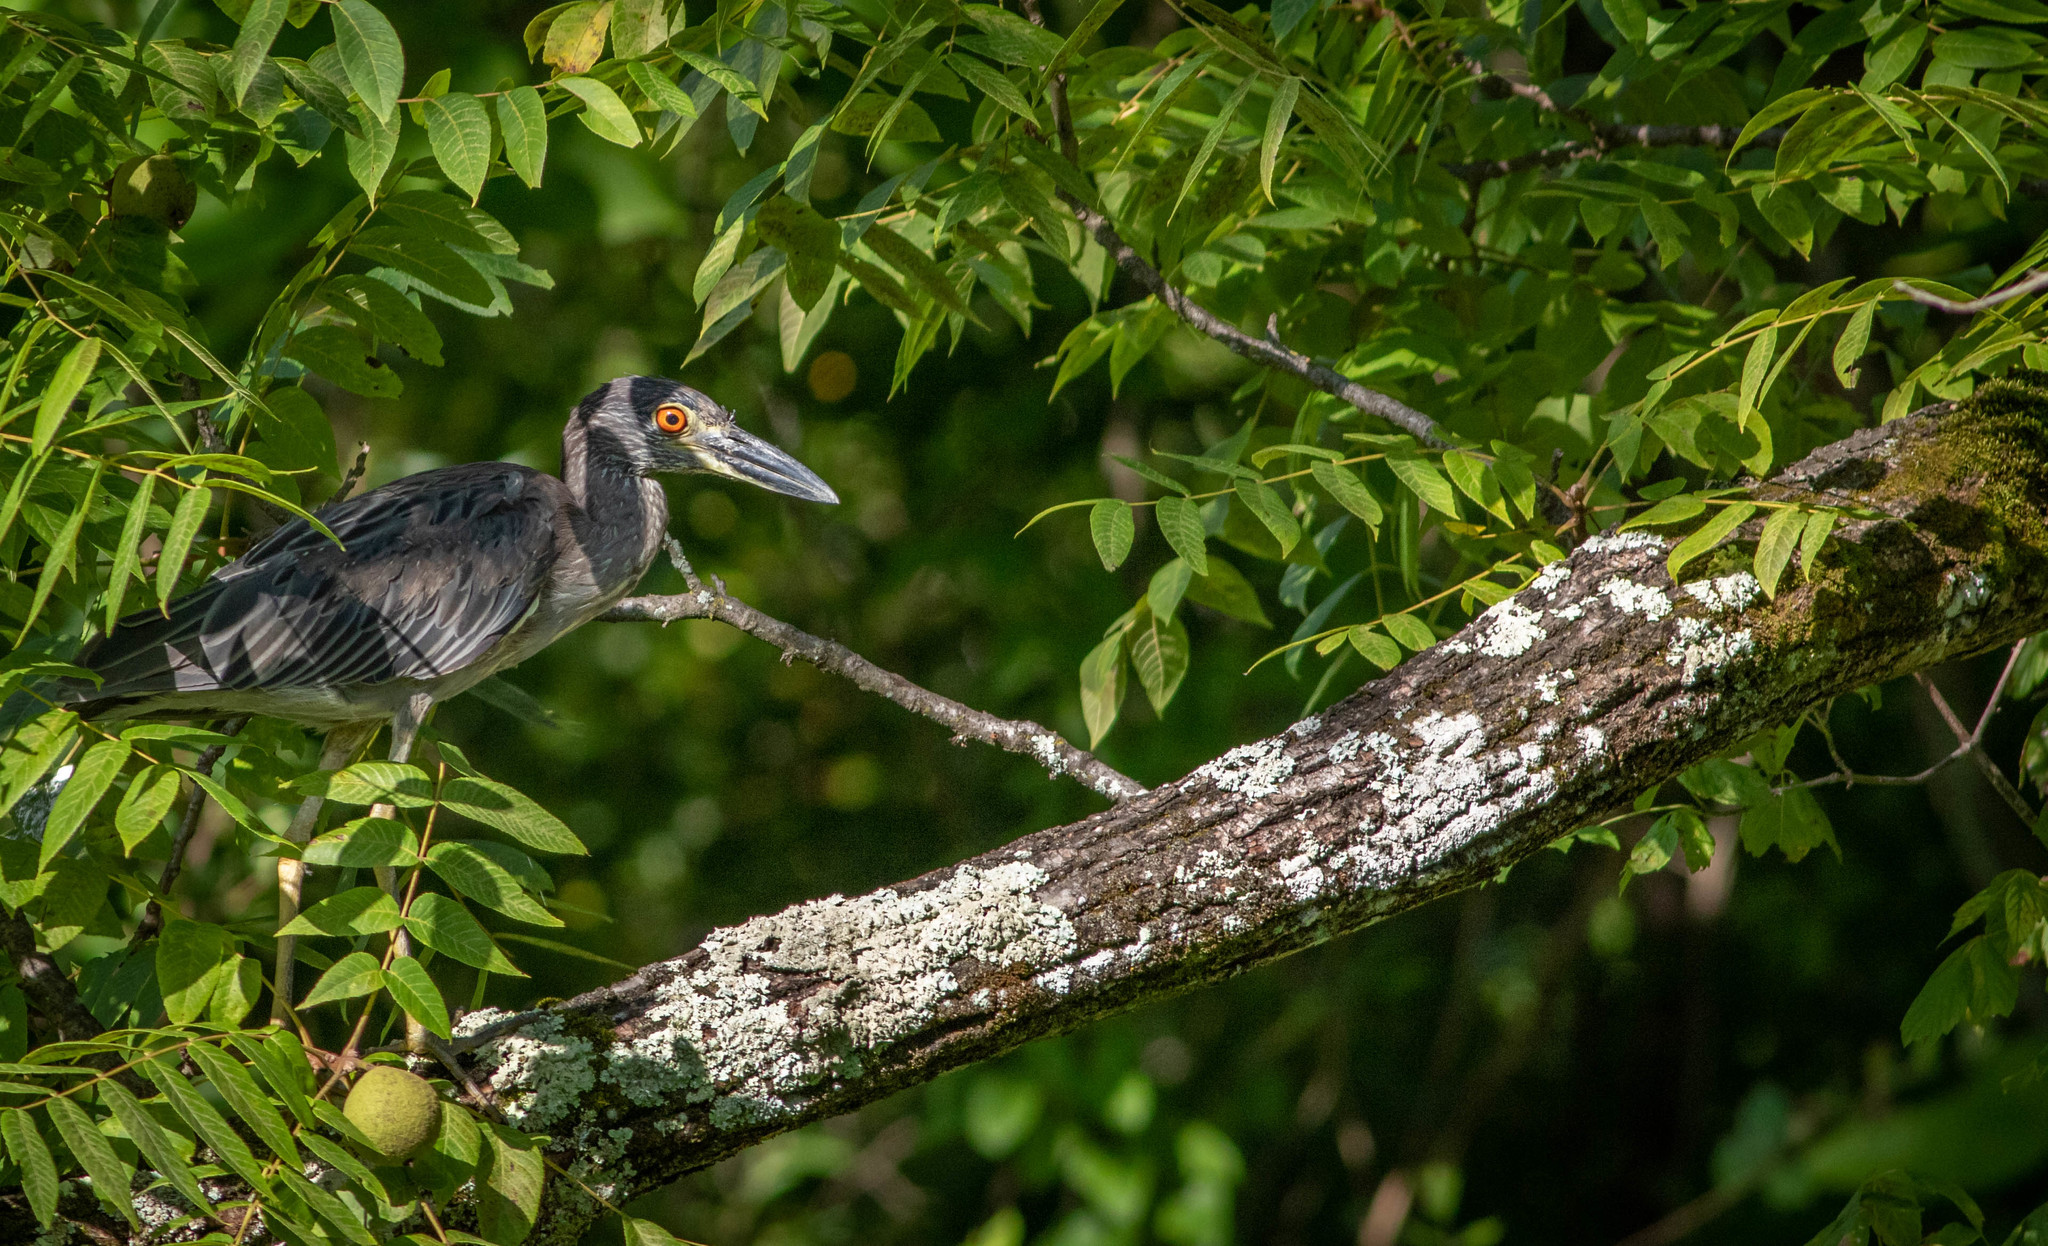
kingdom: Animalia
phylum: Chordata
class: Aves
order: Pelecaniformes
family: Ardeidae
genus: Nyctanassa
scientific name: Nyctanassa violacea
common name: Yellow-crowned night heron
